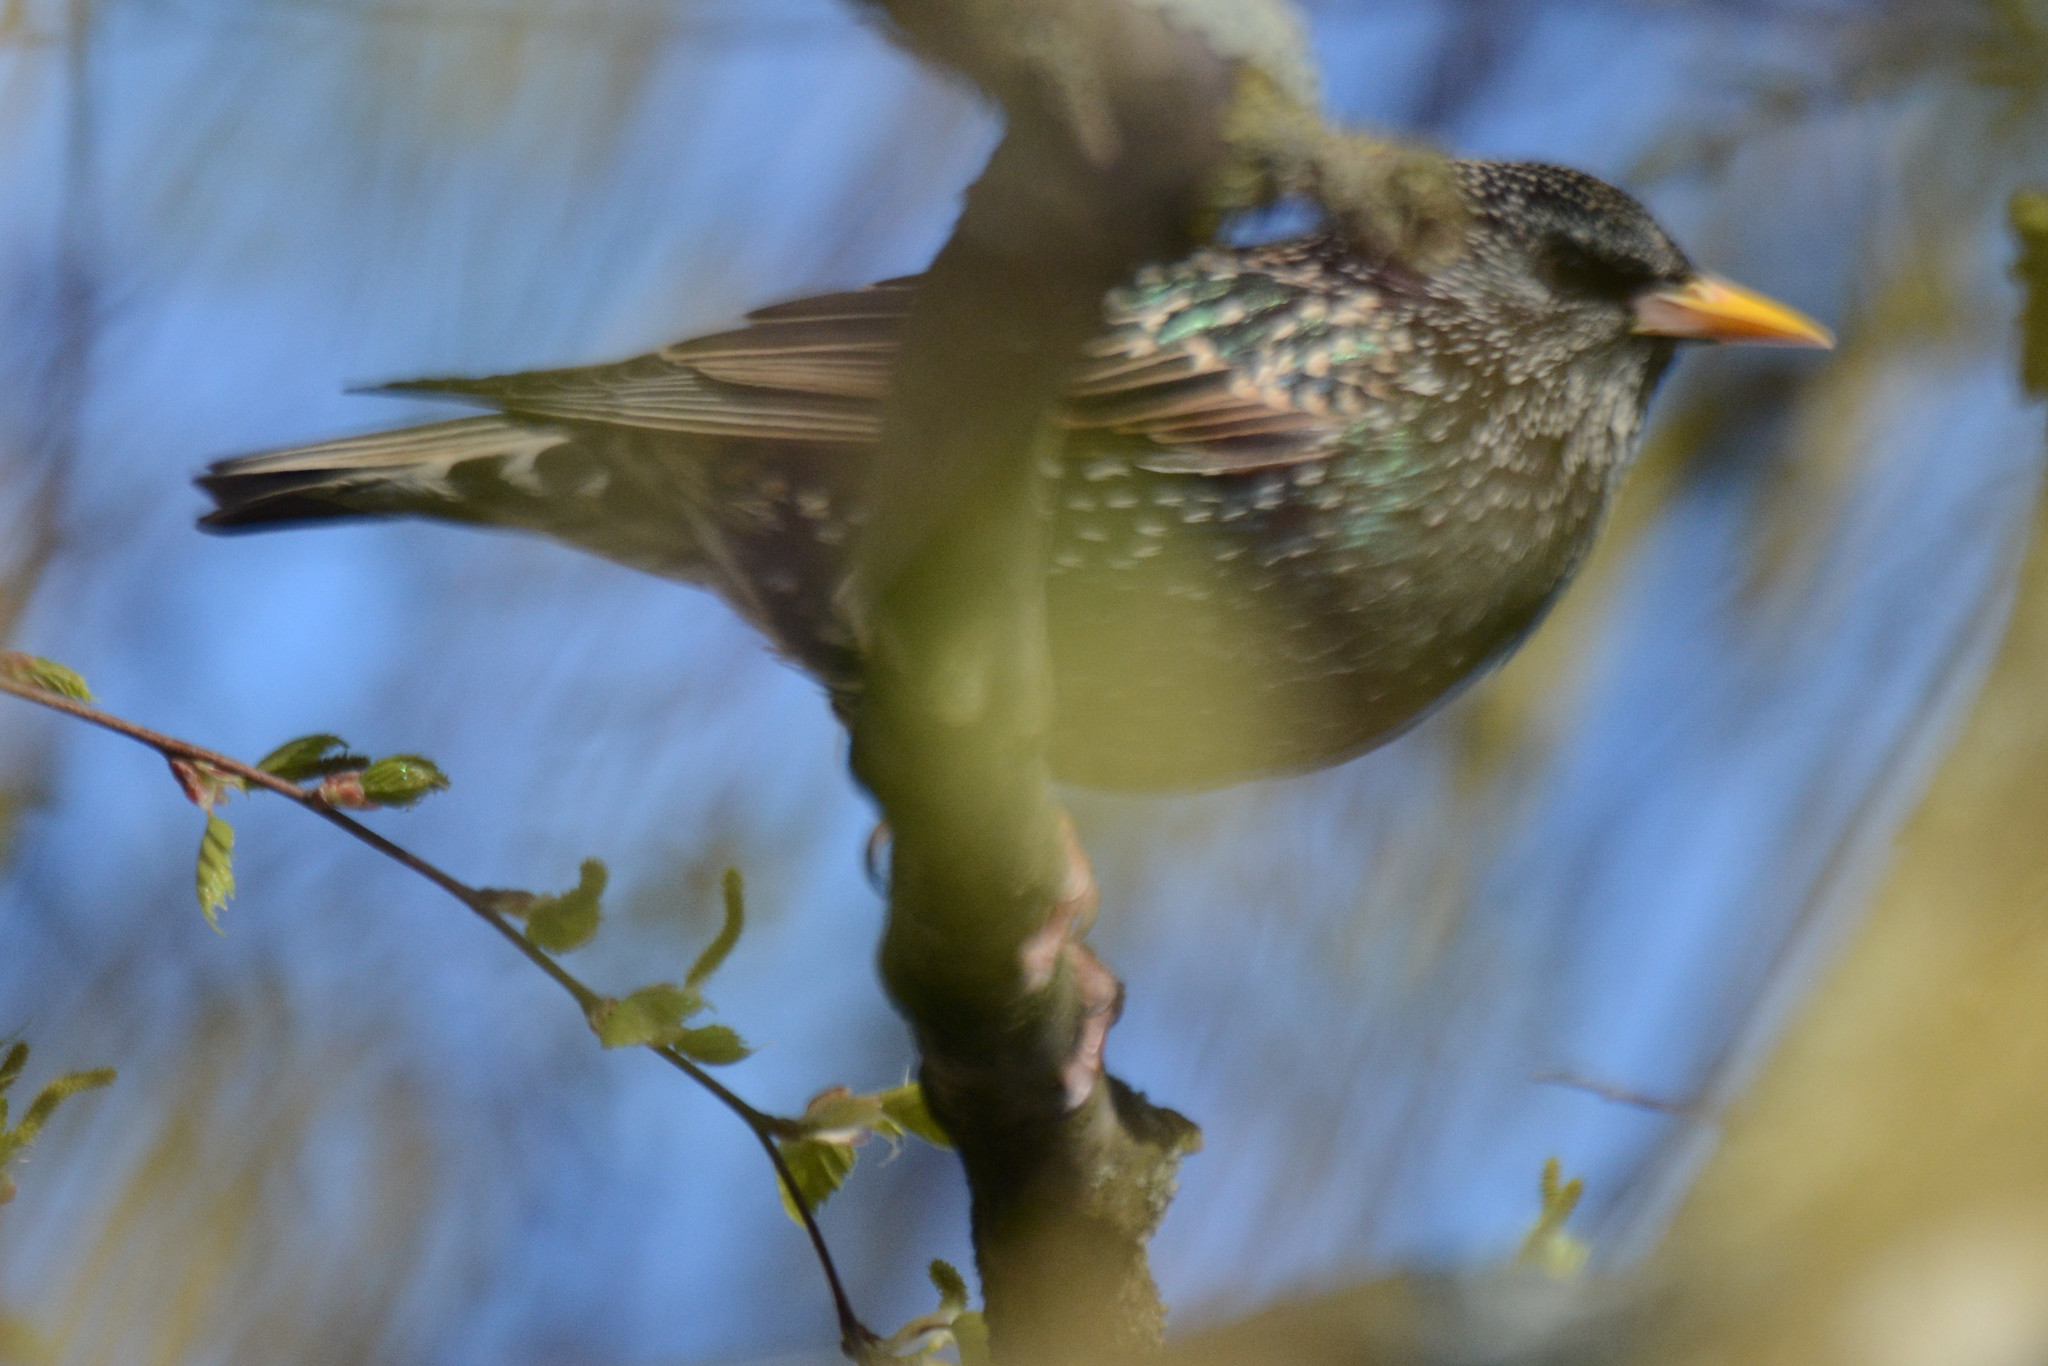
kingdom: Animalia
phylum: Chordata
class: Aves
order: Passeriformes
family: Sturnidae
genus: Sturnus
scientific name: Sturnus vulgaris
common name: Common starling
